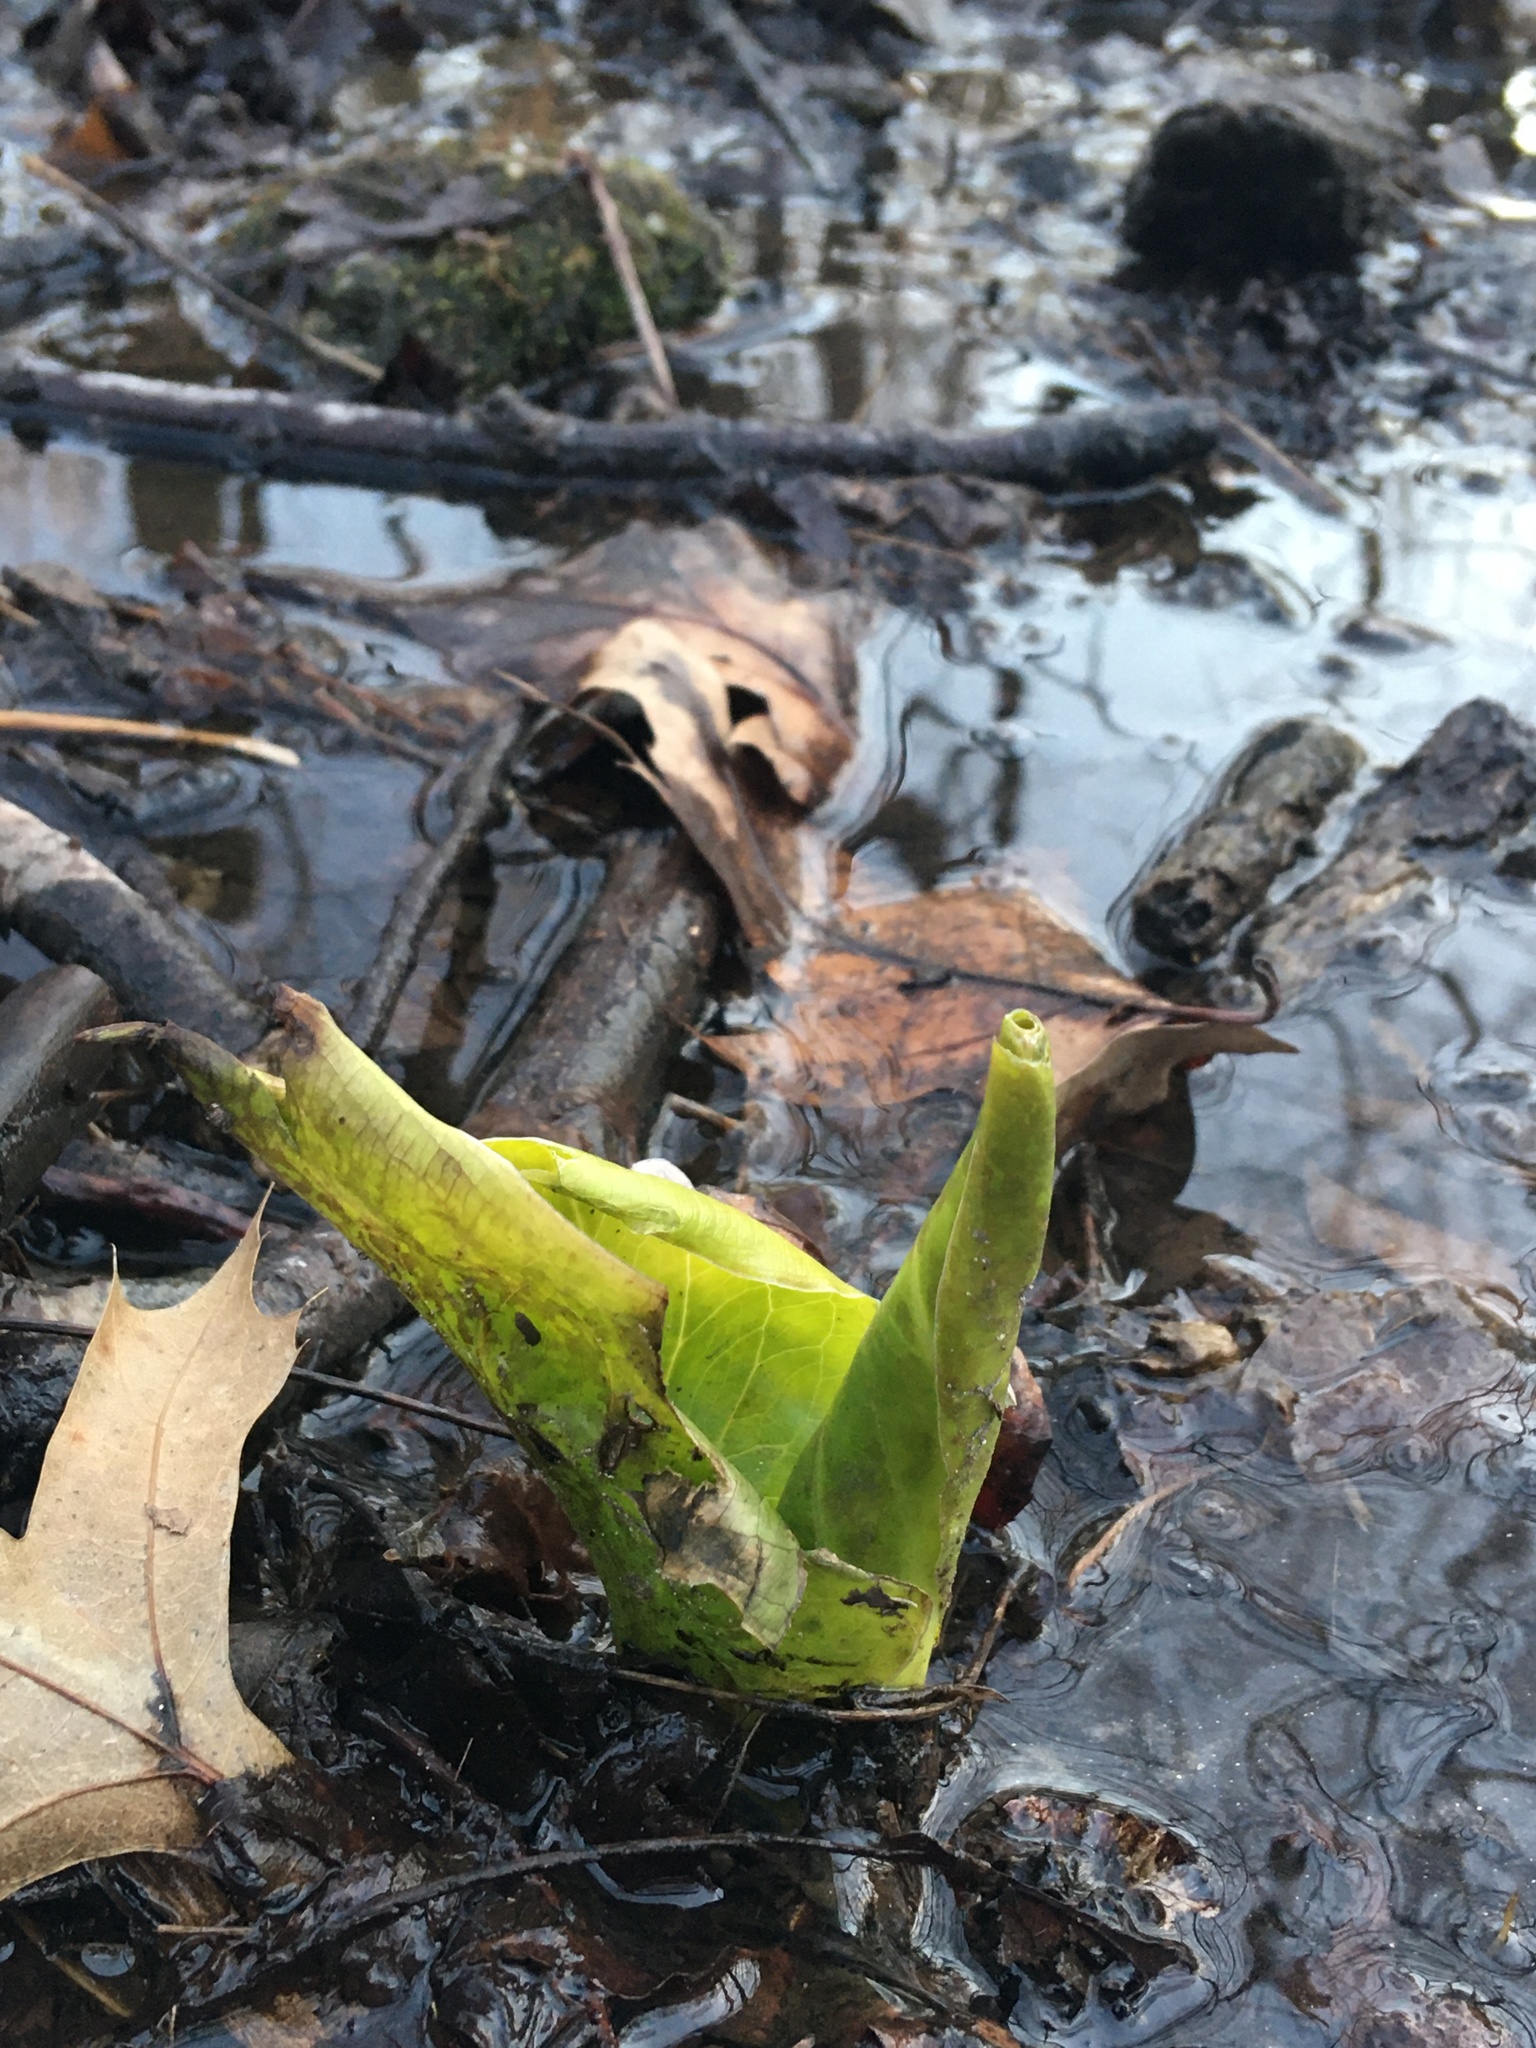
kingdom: Plantae
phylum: Tracheophyta
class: Liliopsida
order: Alismatales
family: Araceae
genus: Symplocarpus
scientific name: Symplocarpus foetidus
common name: Eastern skunk cabbage
